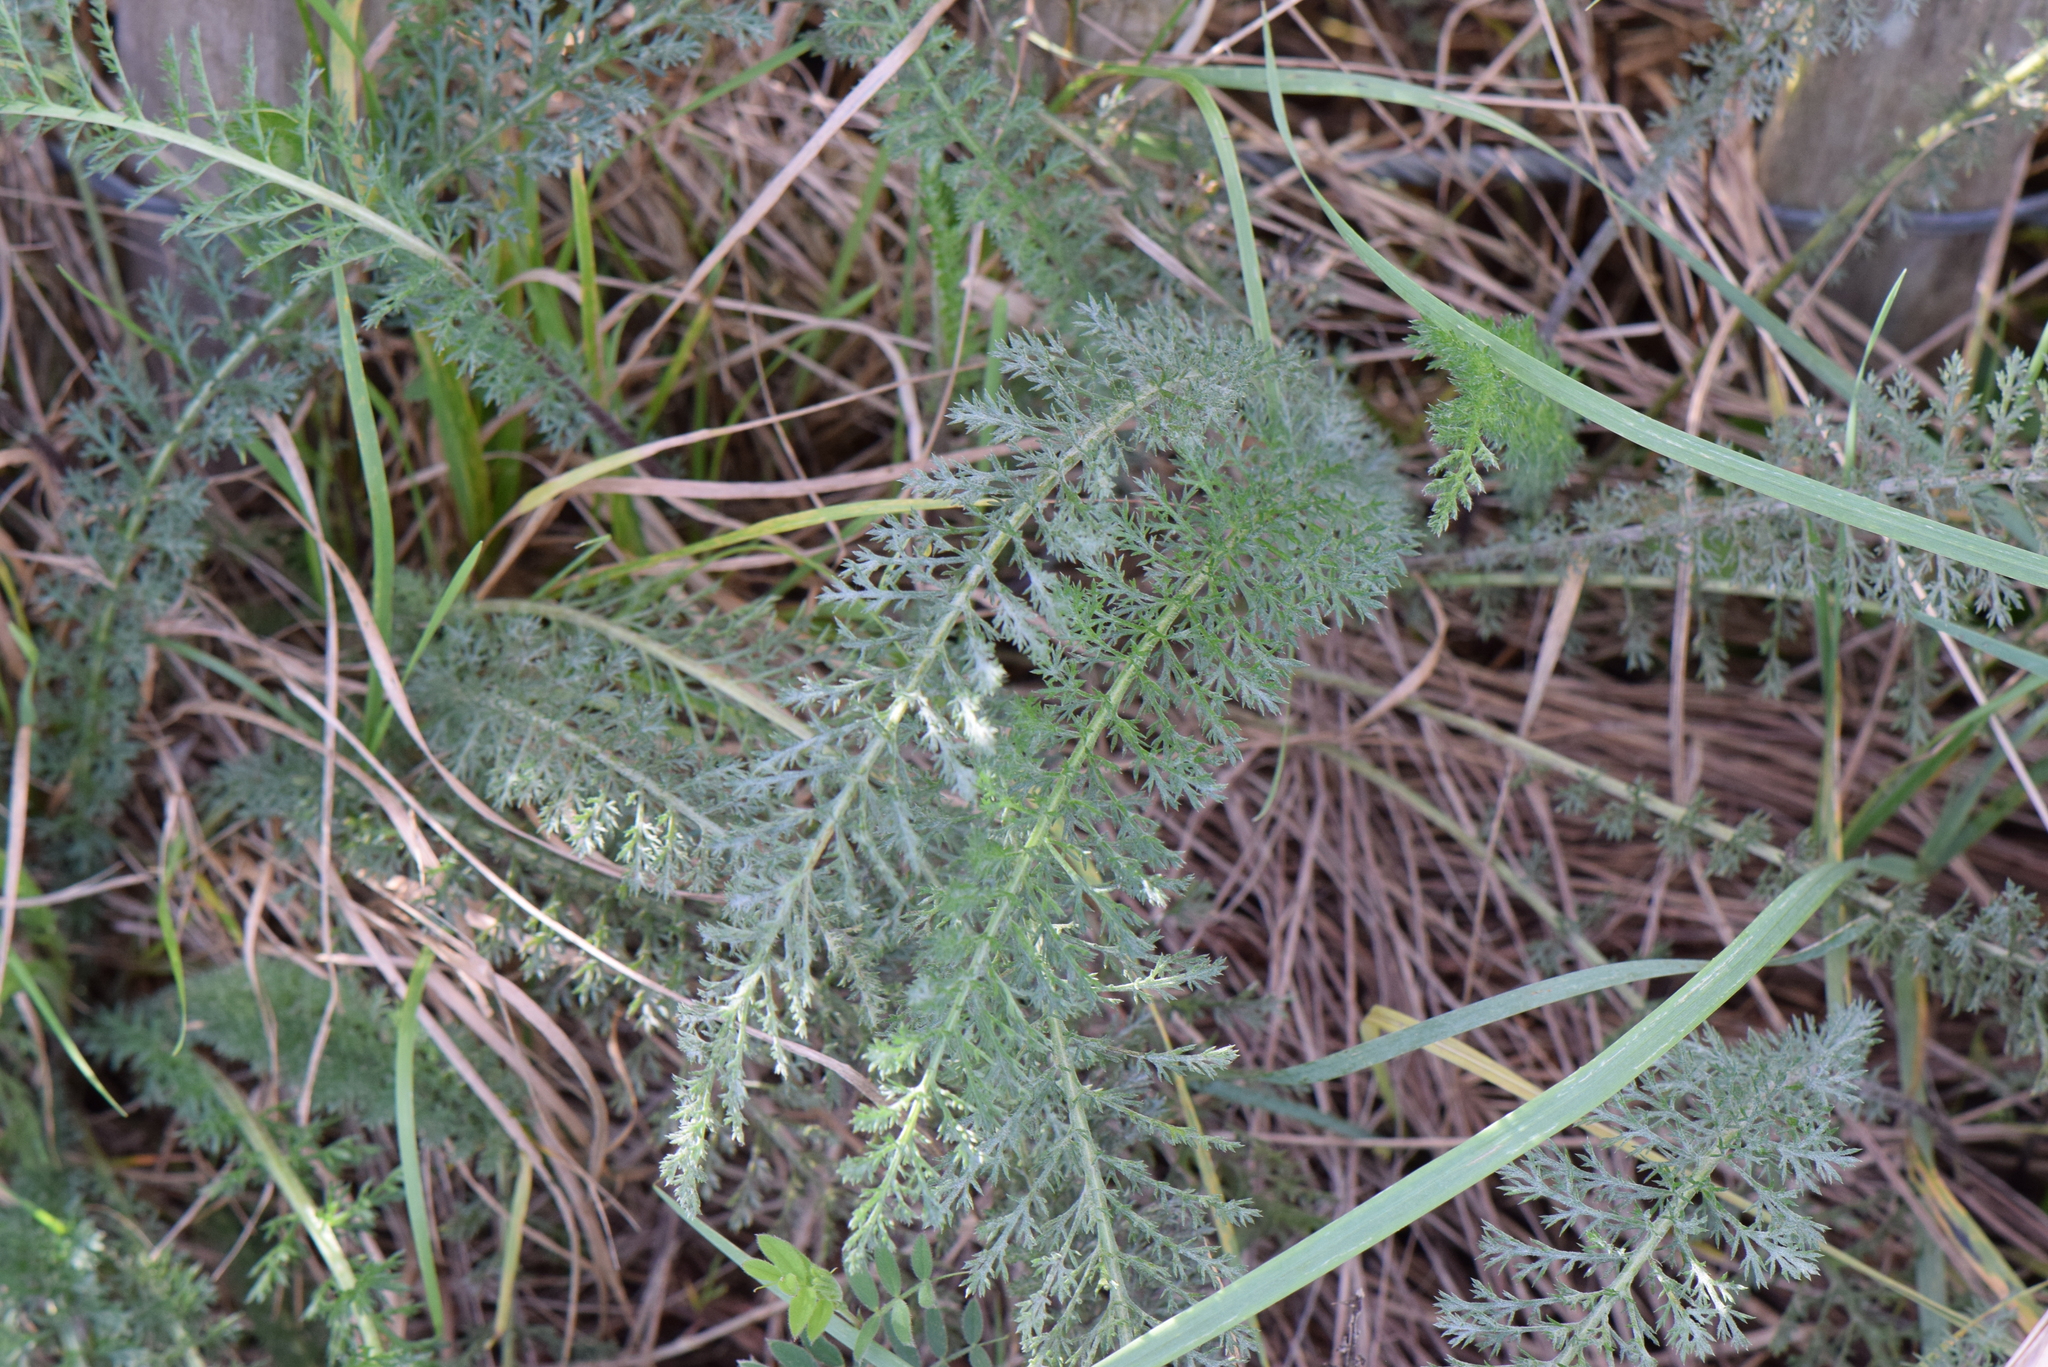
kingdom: Plantae
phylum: Tracheophyta
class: Magnoliopsida
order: Asterales
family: Asteraceae
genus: Achillea
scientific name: Achillea millefolium
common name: Yarrow
